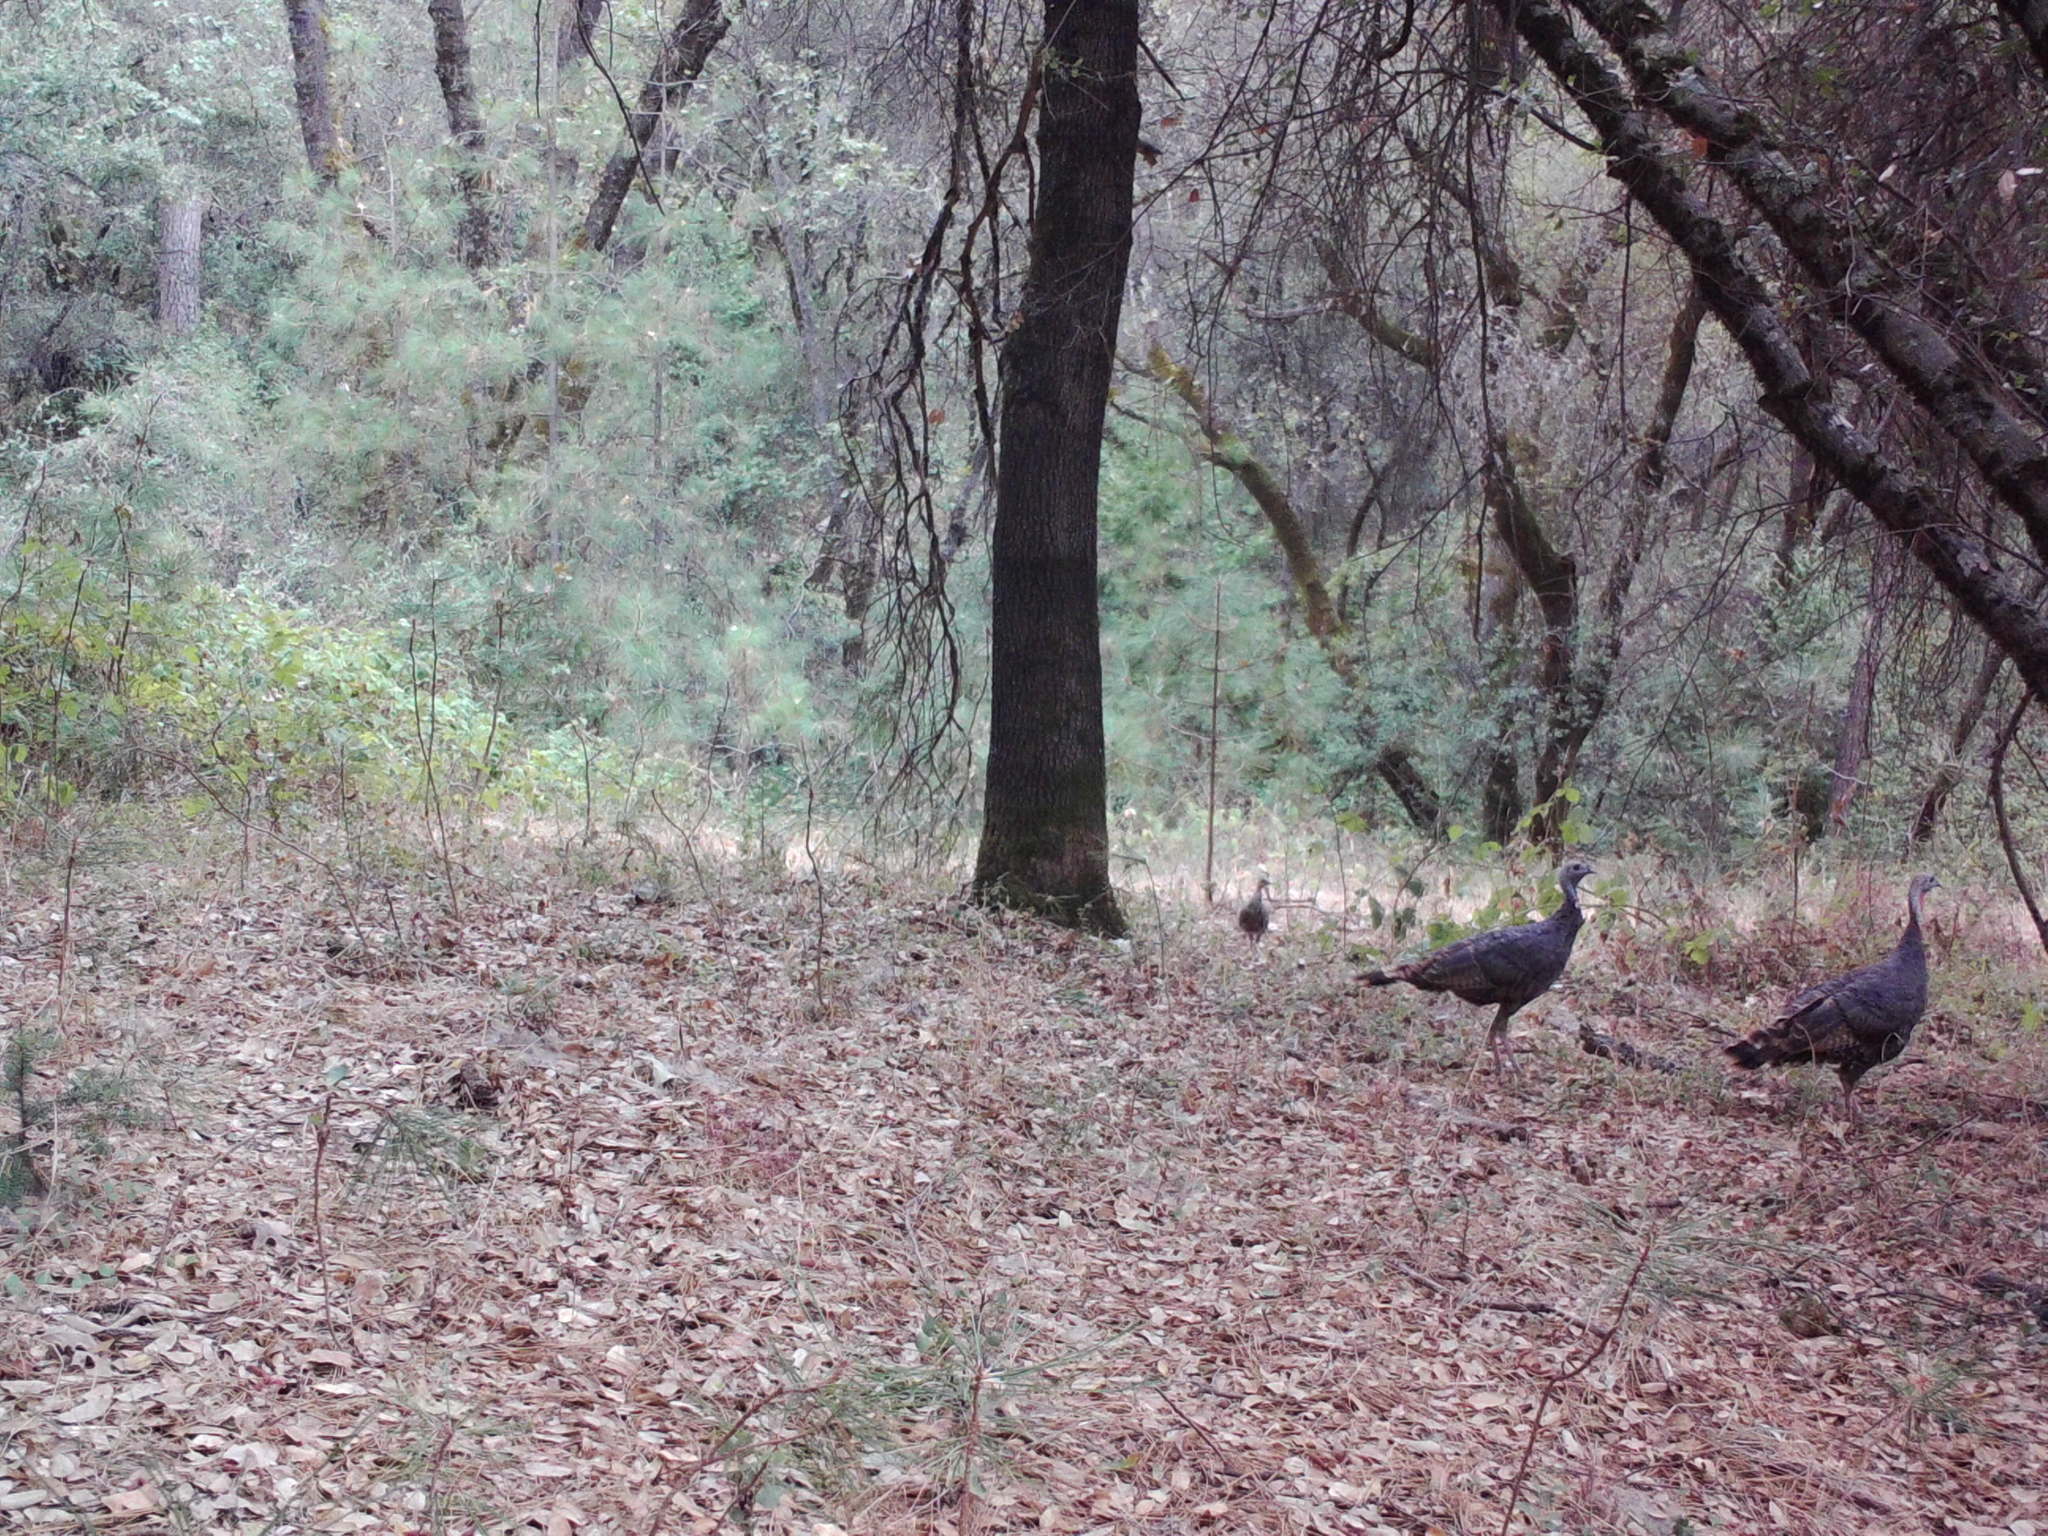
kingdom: Animalia
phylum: Chordata
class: Aves
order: Galliformes
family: Phasianidae
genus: Meleagris
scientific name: Meleagris gallopavo
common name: Wild turkey
